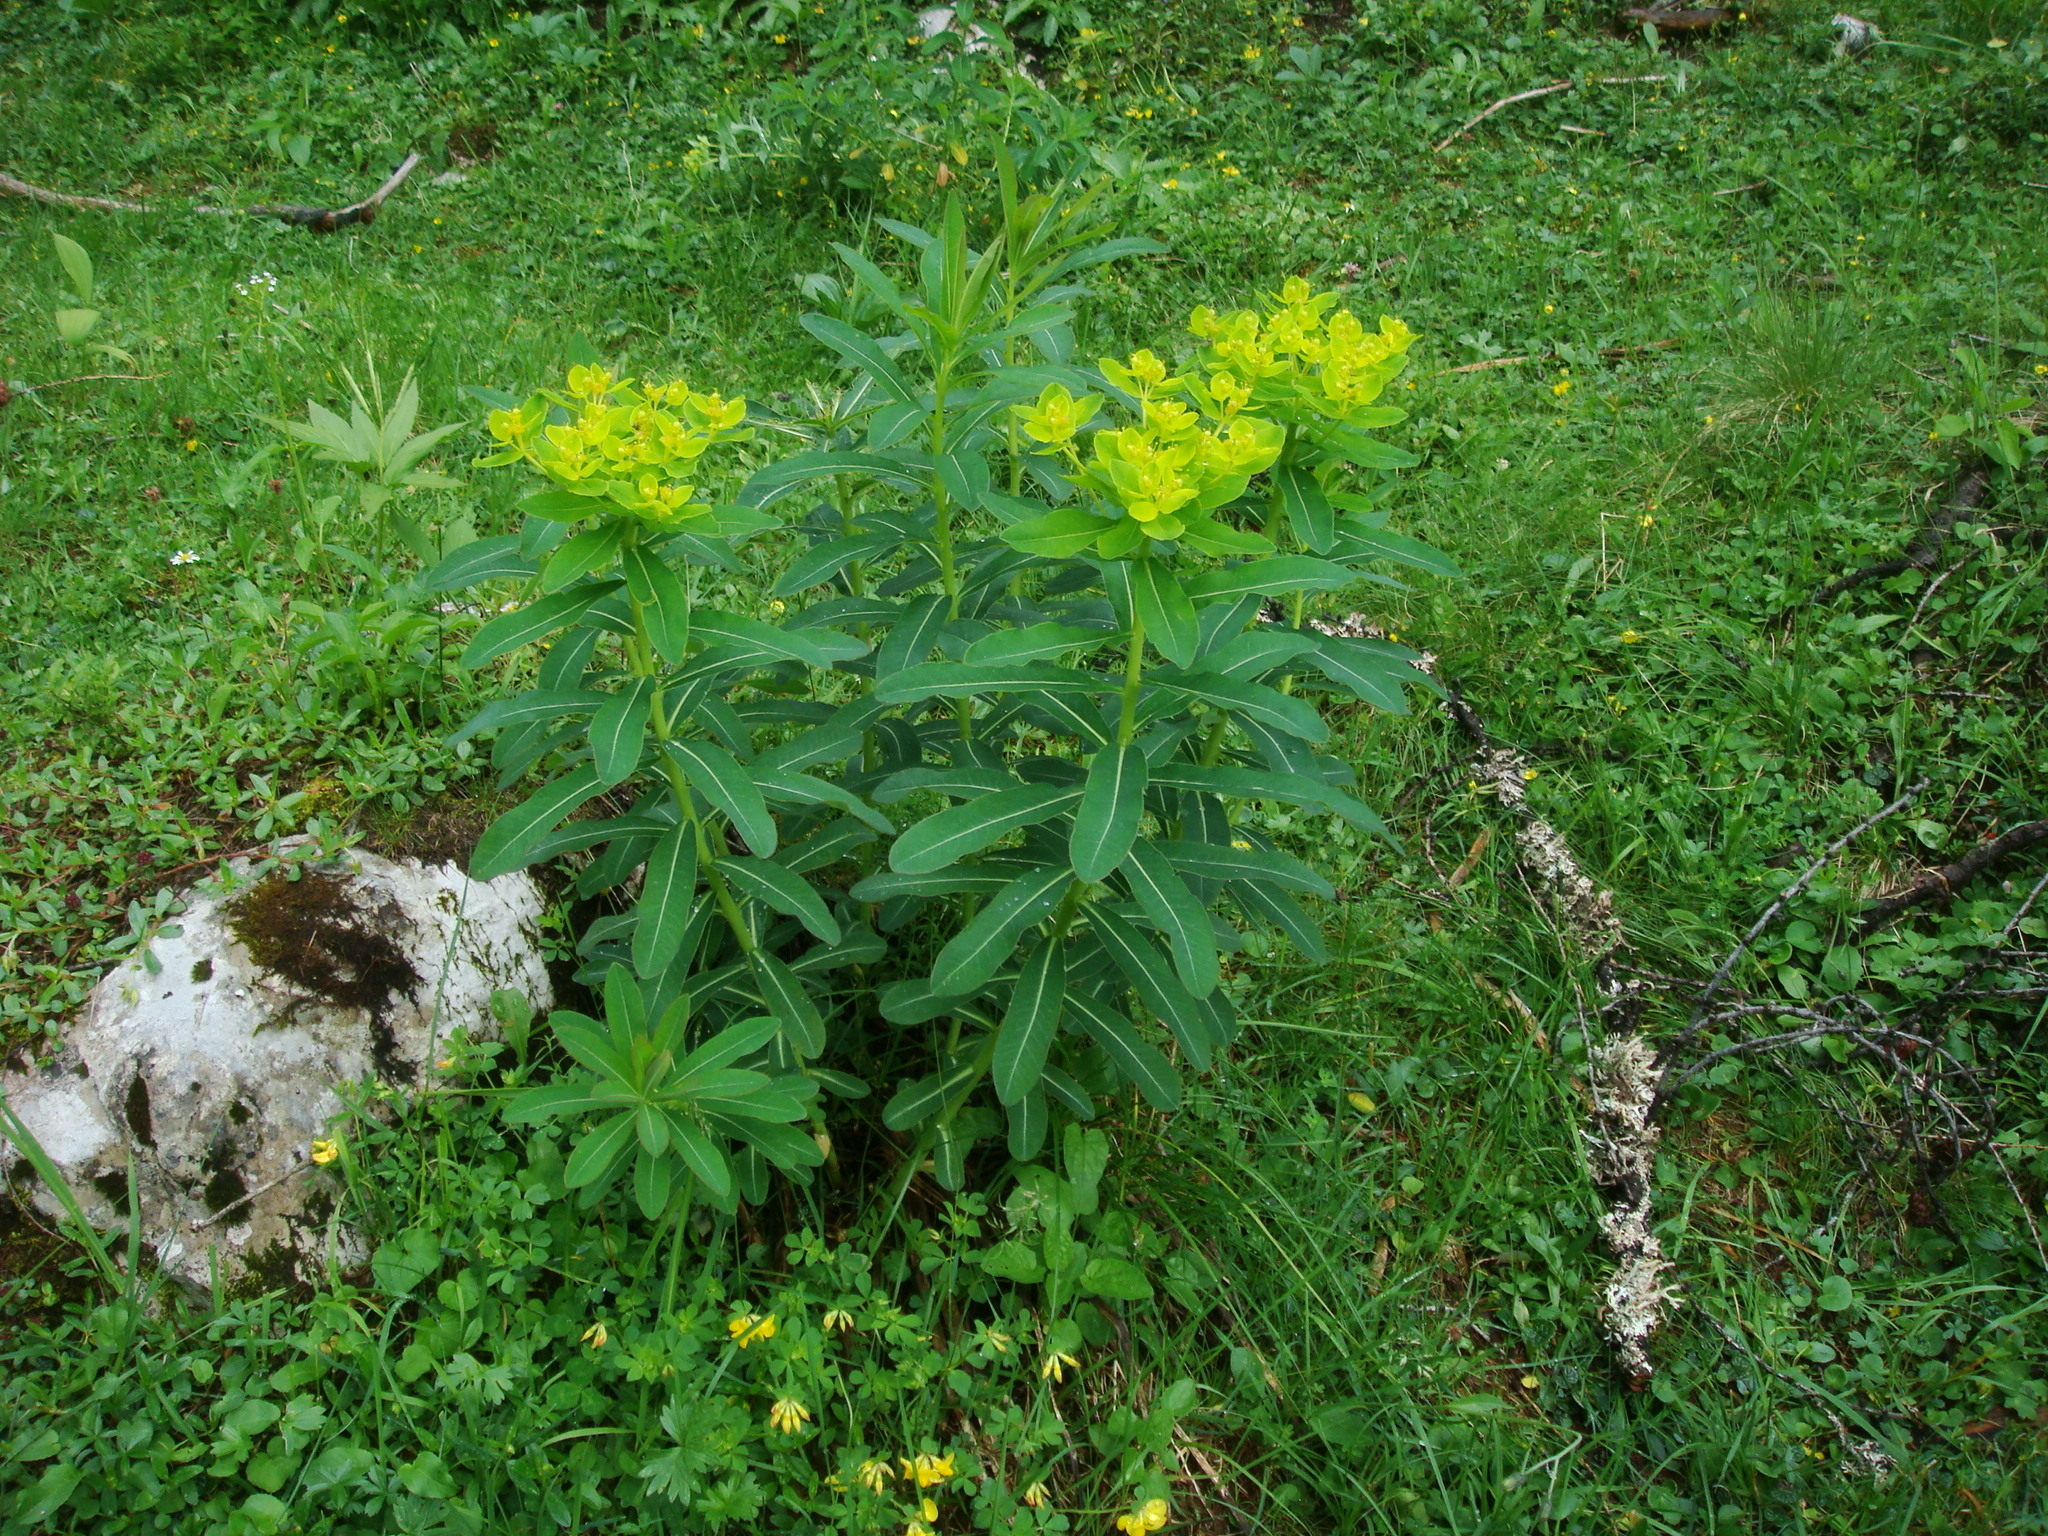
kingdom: Plantae
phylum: Tracheophyta
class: Magnoliopsida
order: Malpighiales
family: Euphorbiaceae
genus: Euphorbia
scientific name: Euphorbia austriaca
